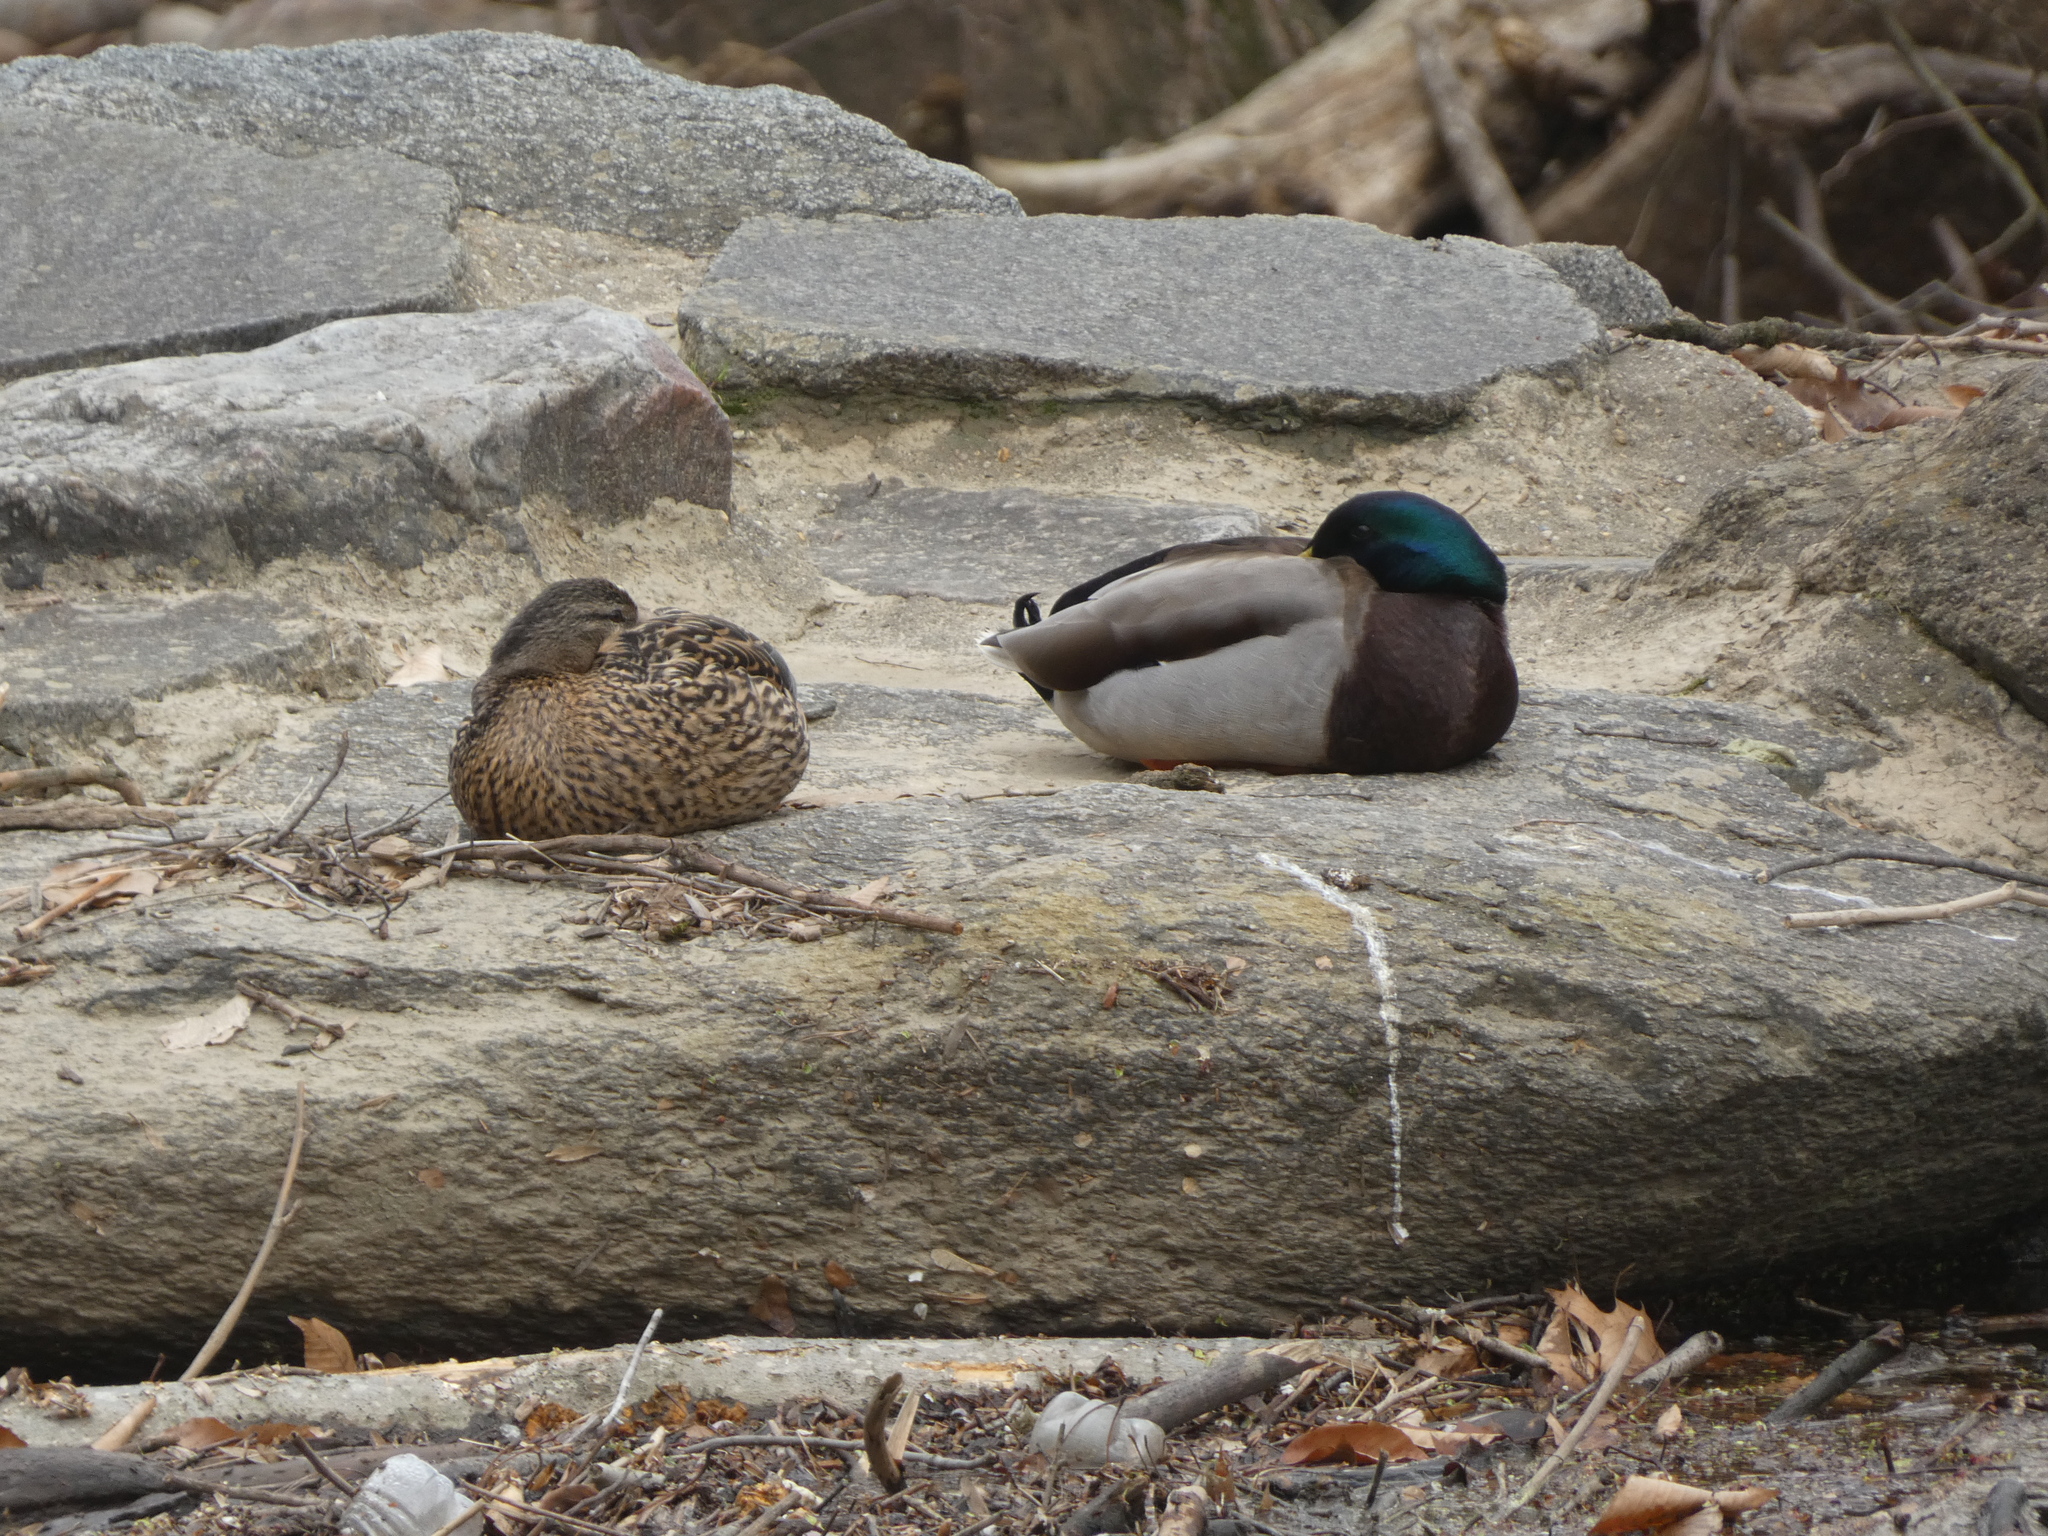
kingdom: Animalia
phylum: Chordata
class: Aves
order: Anseriformes
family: Anatidae
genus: Anas
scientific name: Anas platyrhynchos
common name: Mallard
